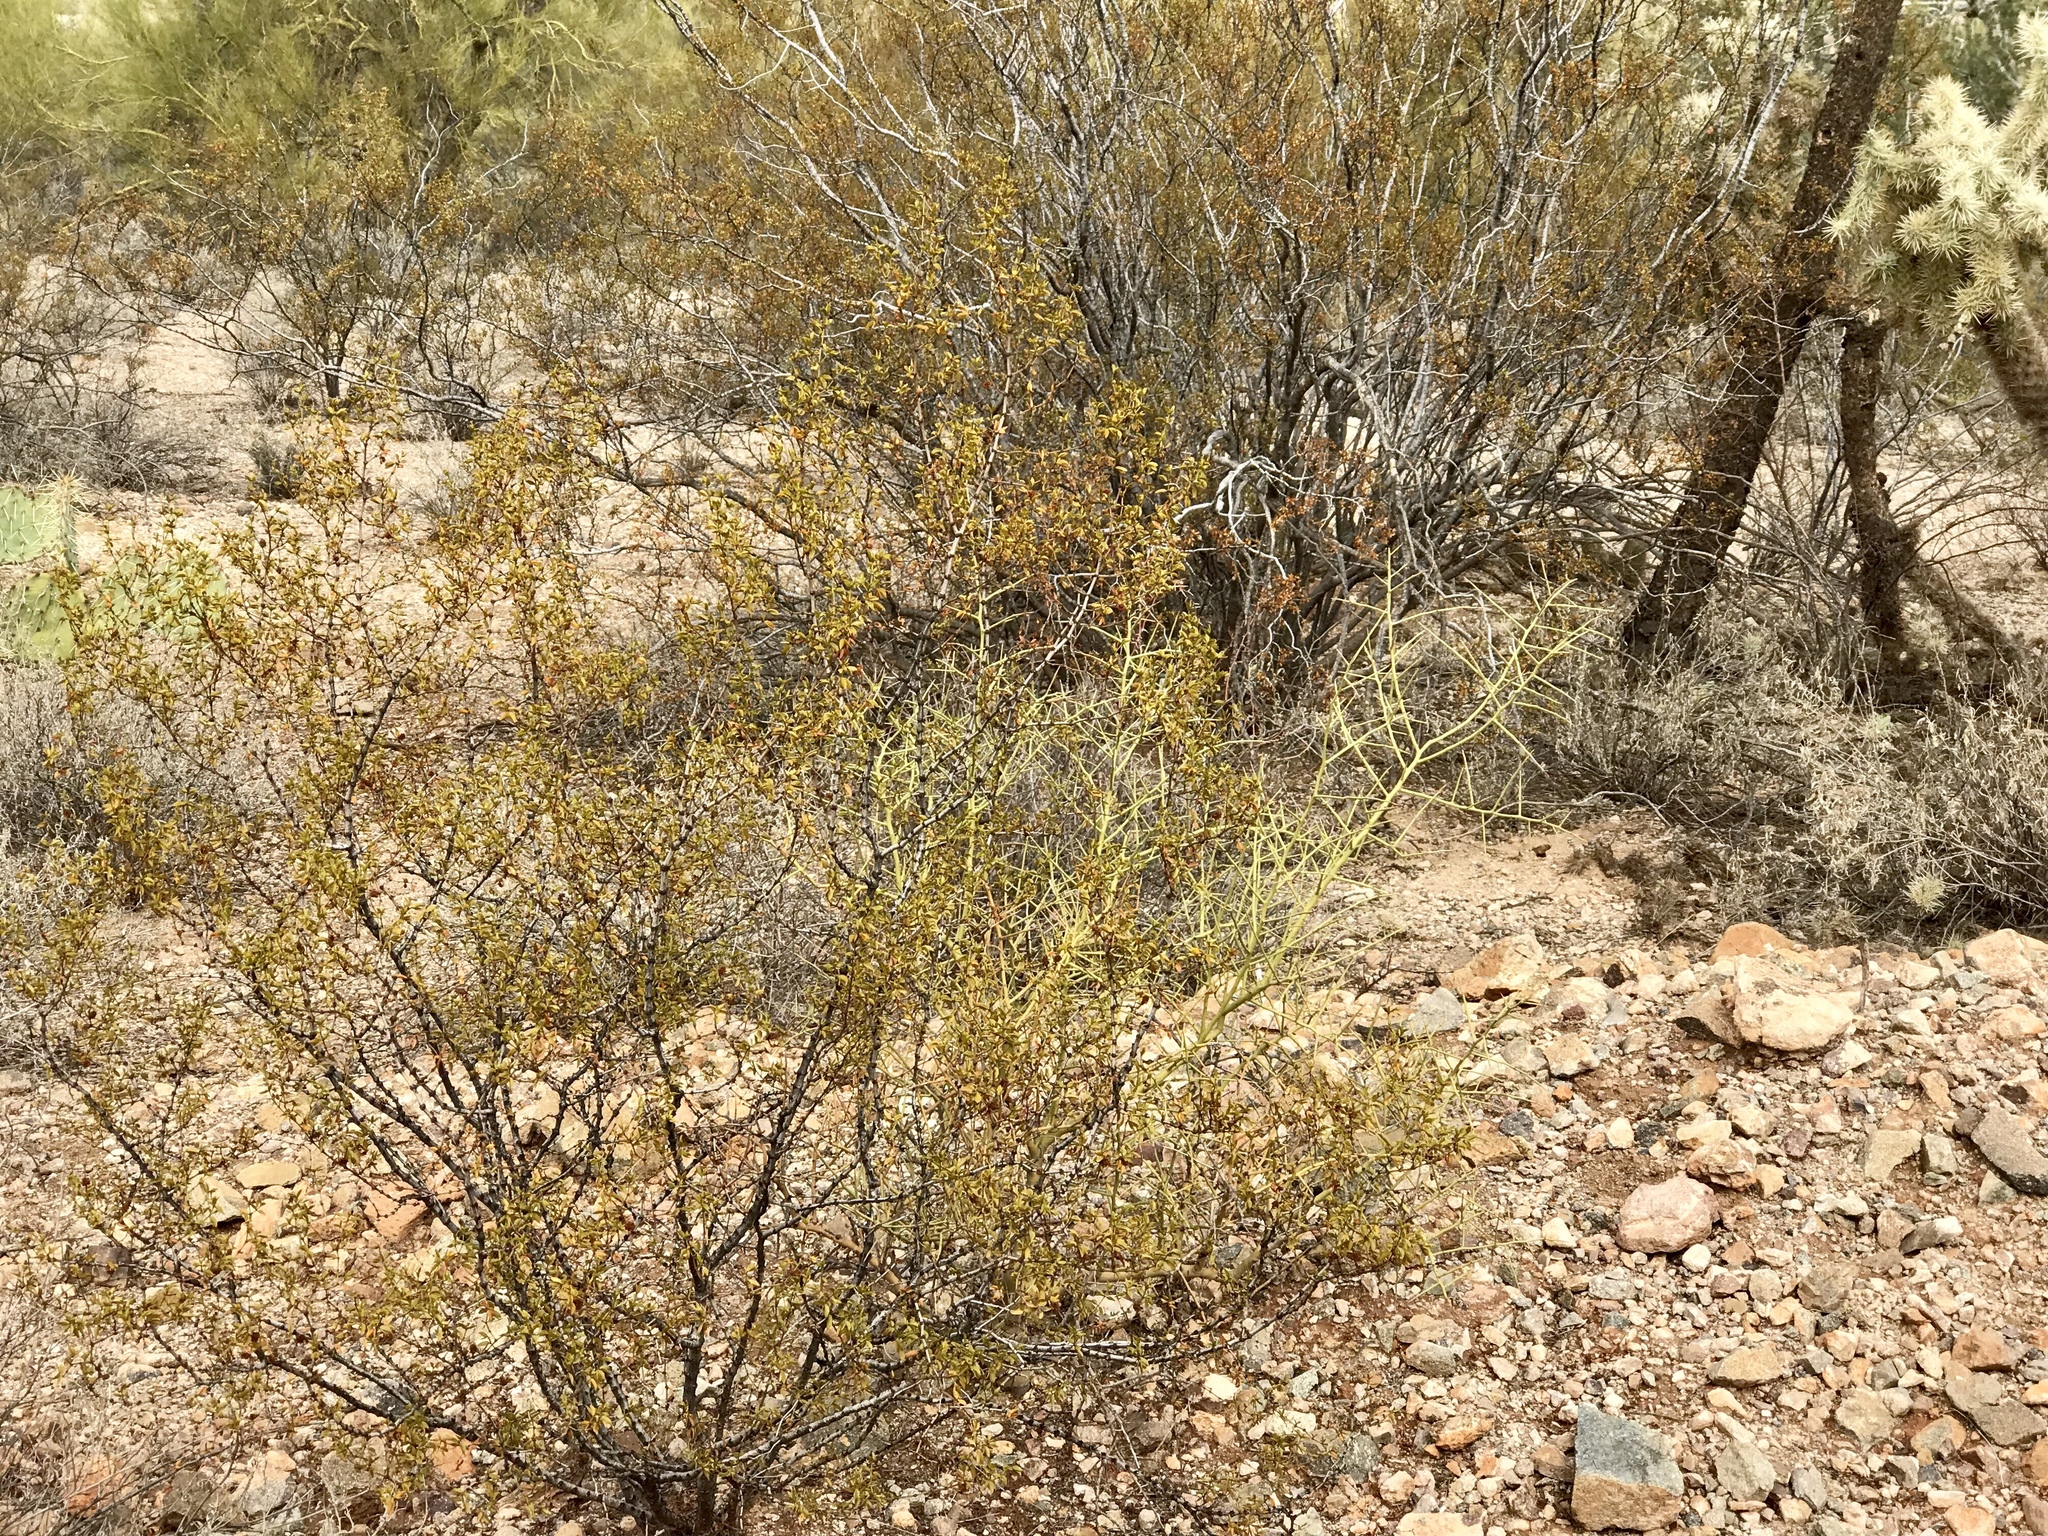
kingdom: Plantae
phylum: Tracheophyta
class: Magnoliopsida
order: Zygophyllales
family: Zygophyllaceae
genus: Larrea
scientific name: Larrea tridentata
